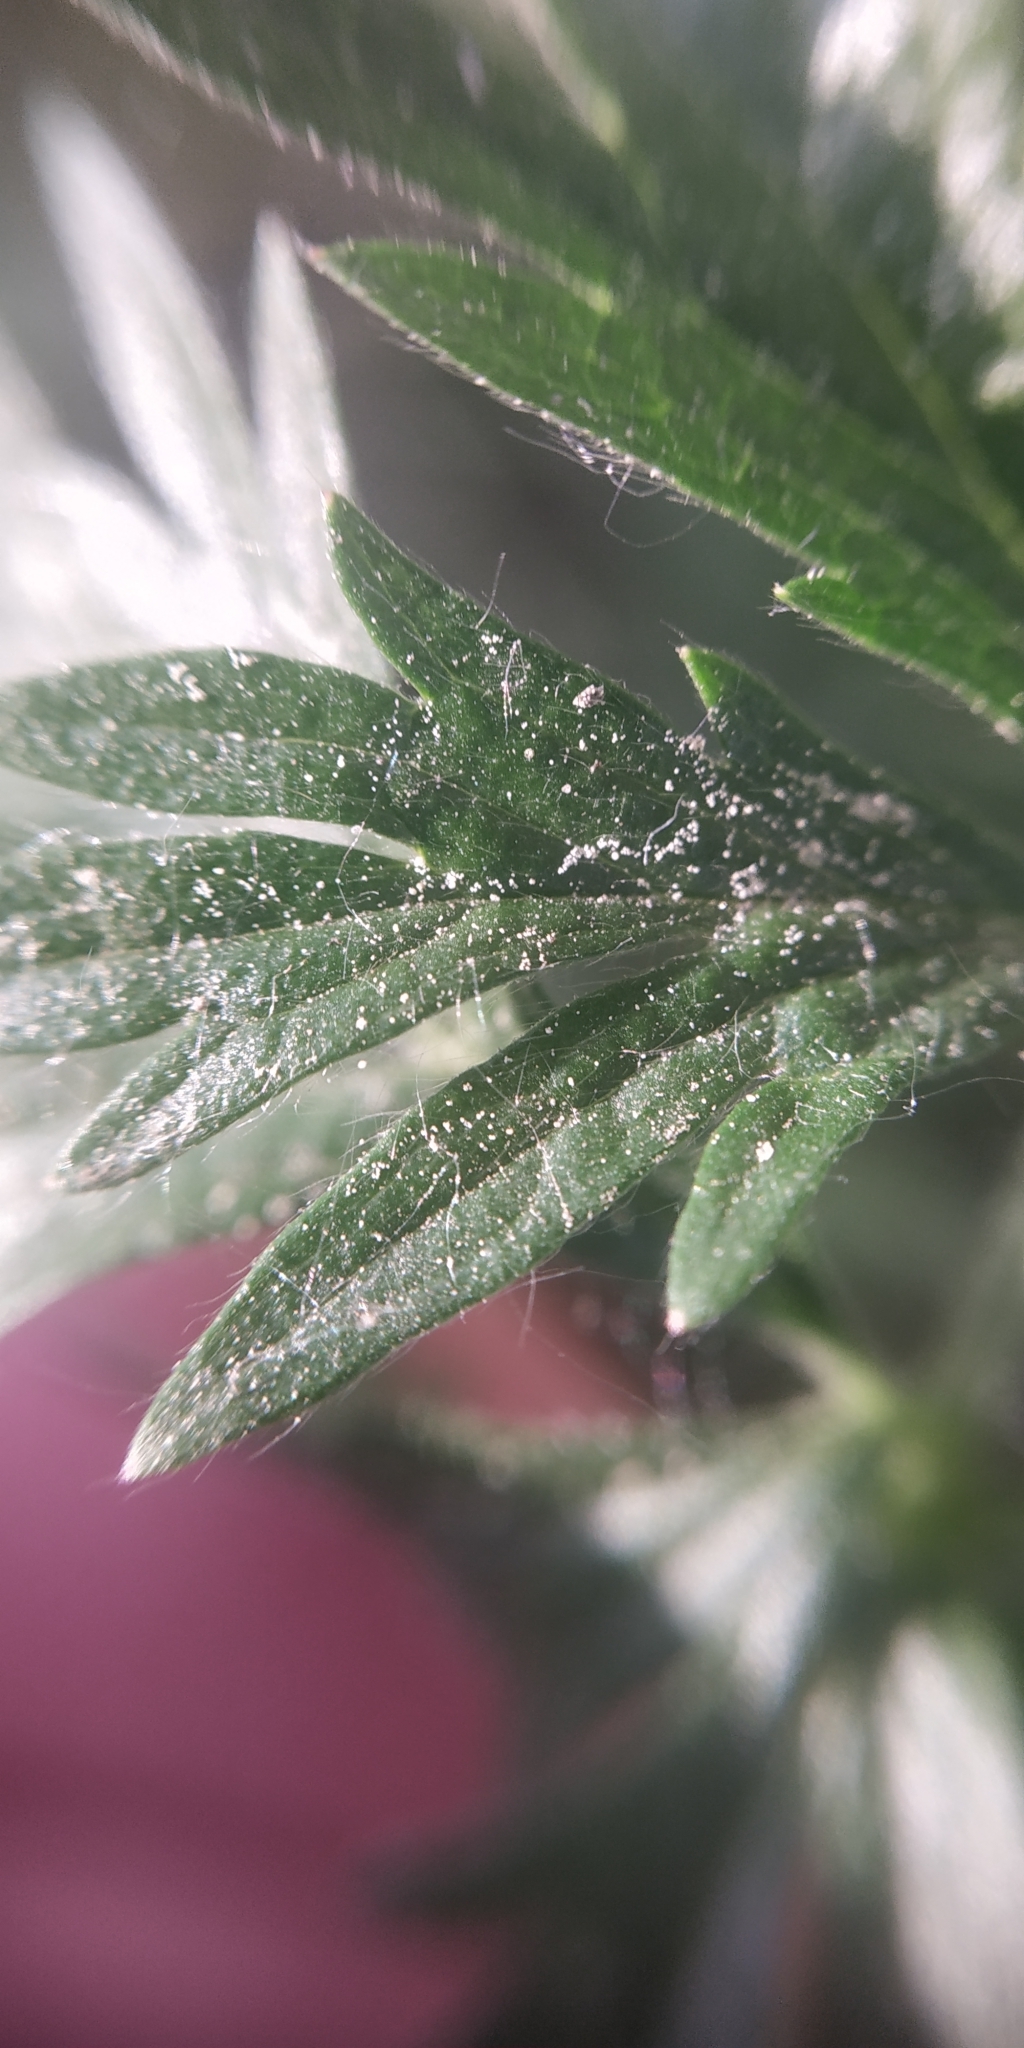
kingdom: Plantae
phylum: Tracheophyta
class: Magnoliopsida
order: Rosales
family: Rosaceae
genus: Potentilla
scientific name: Potentilla tobolensis
